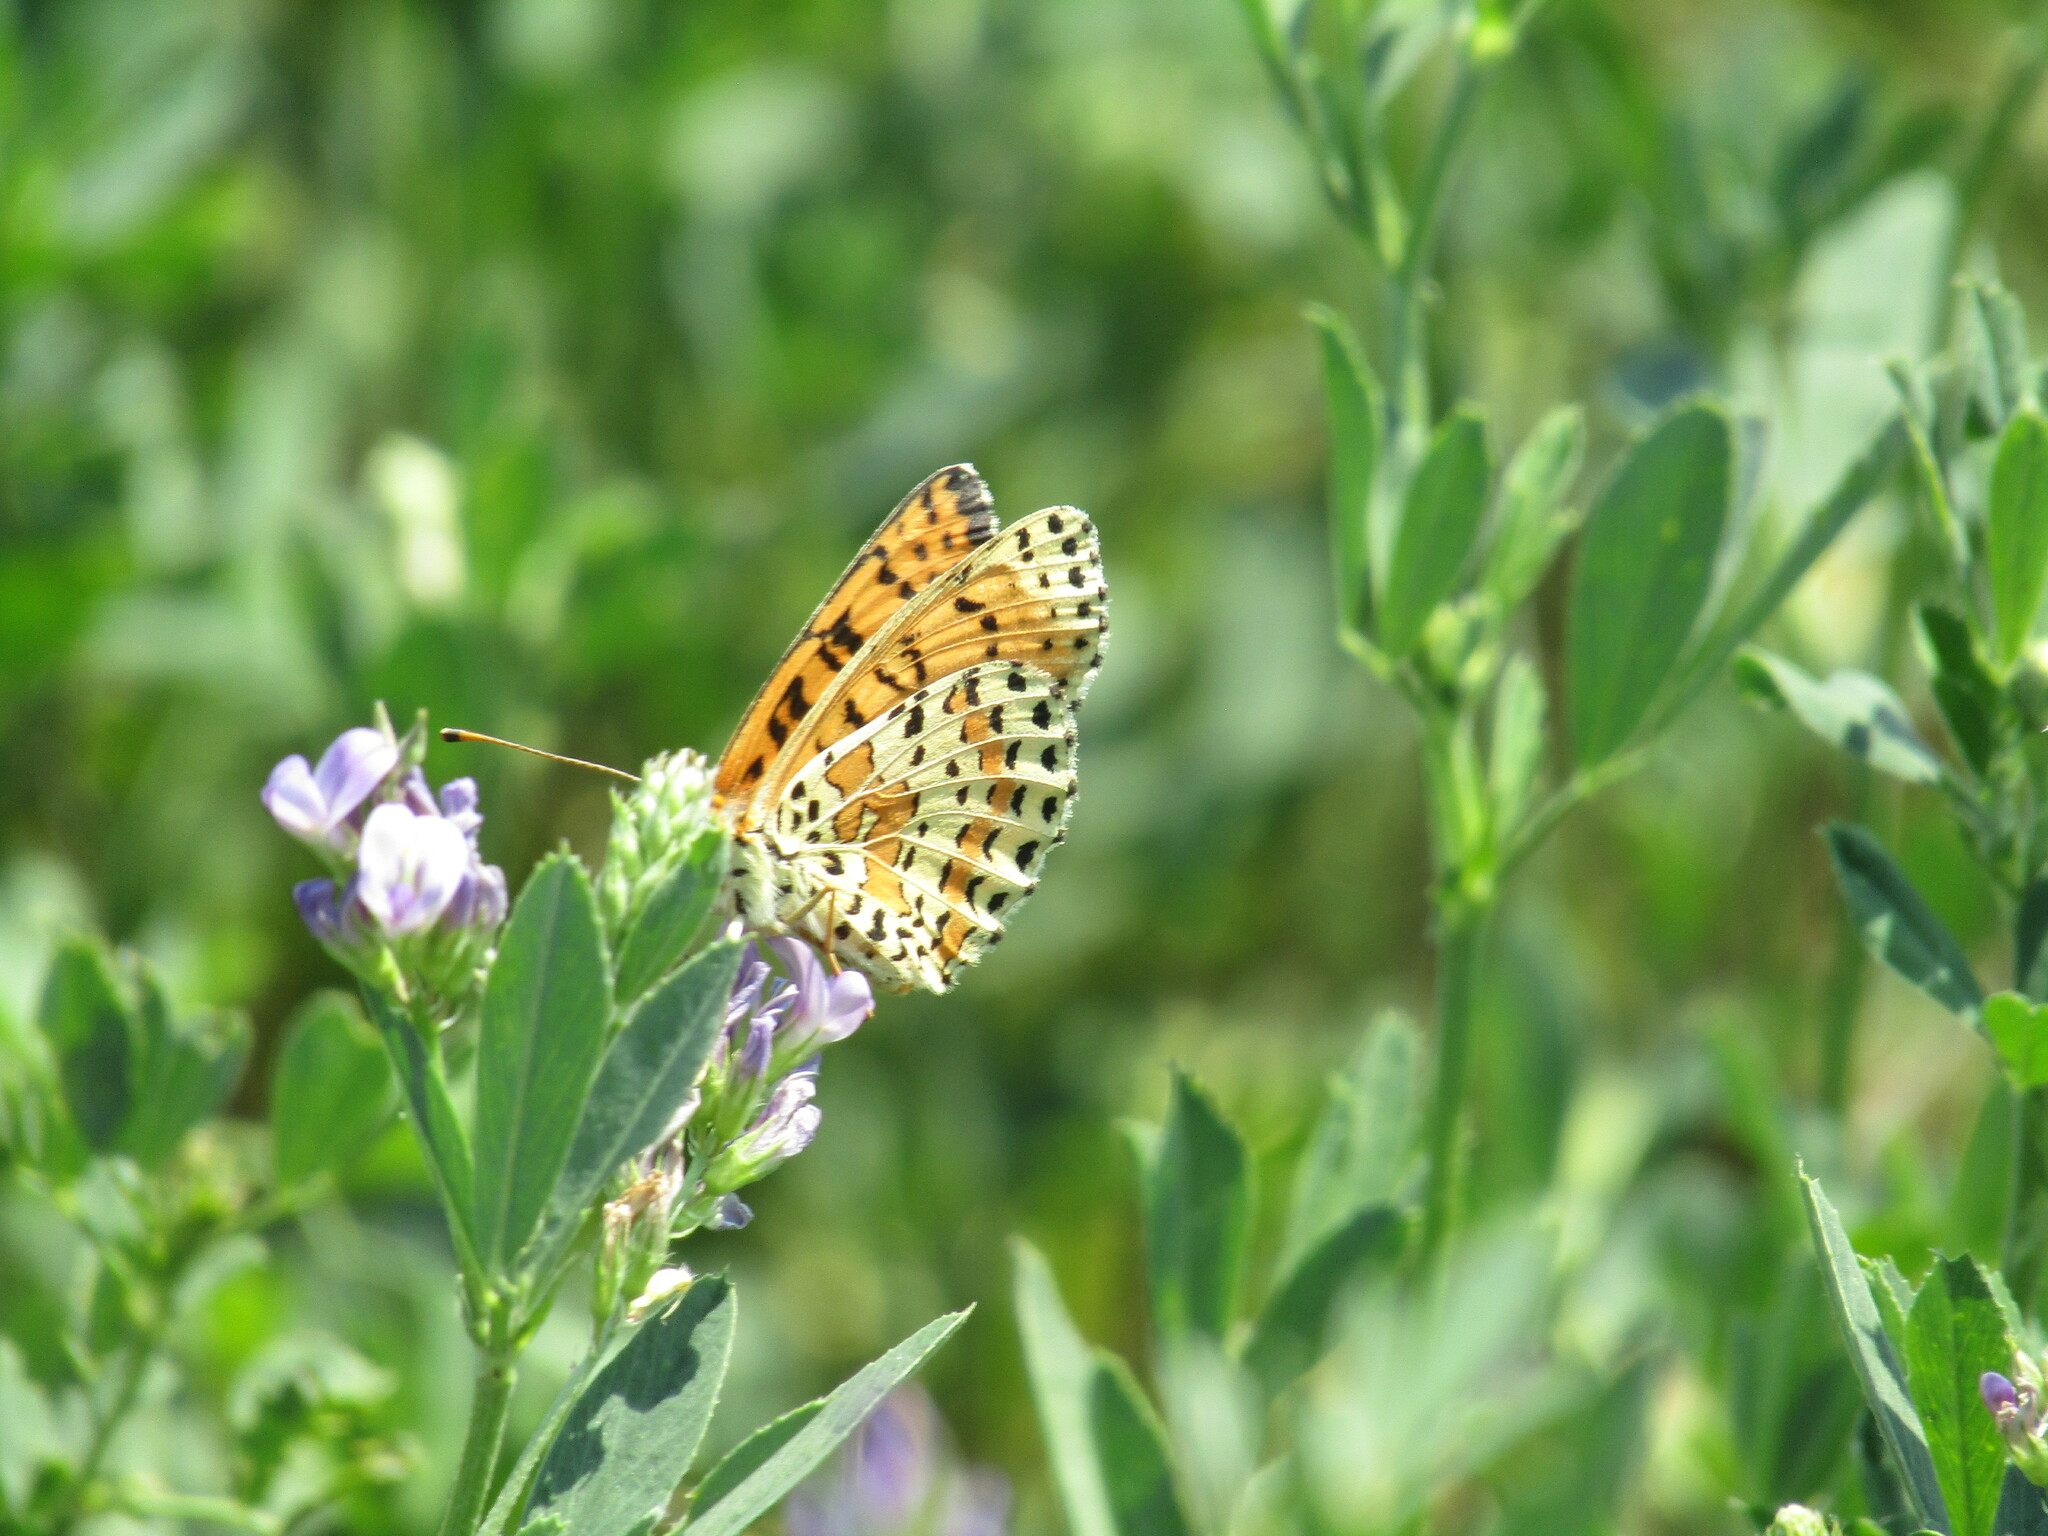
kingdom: Animalia
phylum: Arthropoda
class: Insecta
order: Lepidoptera
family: Nymphalidae
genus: Melitaea
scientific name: Melitaea didyma
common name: Spotted fritillary
